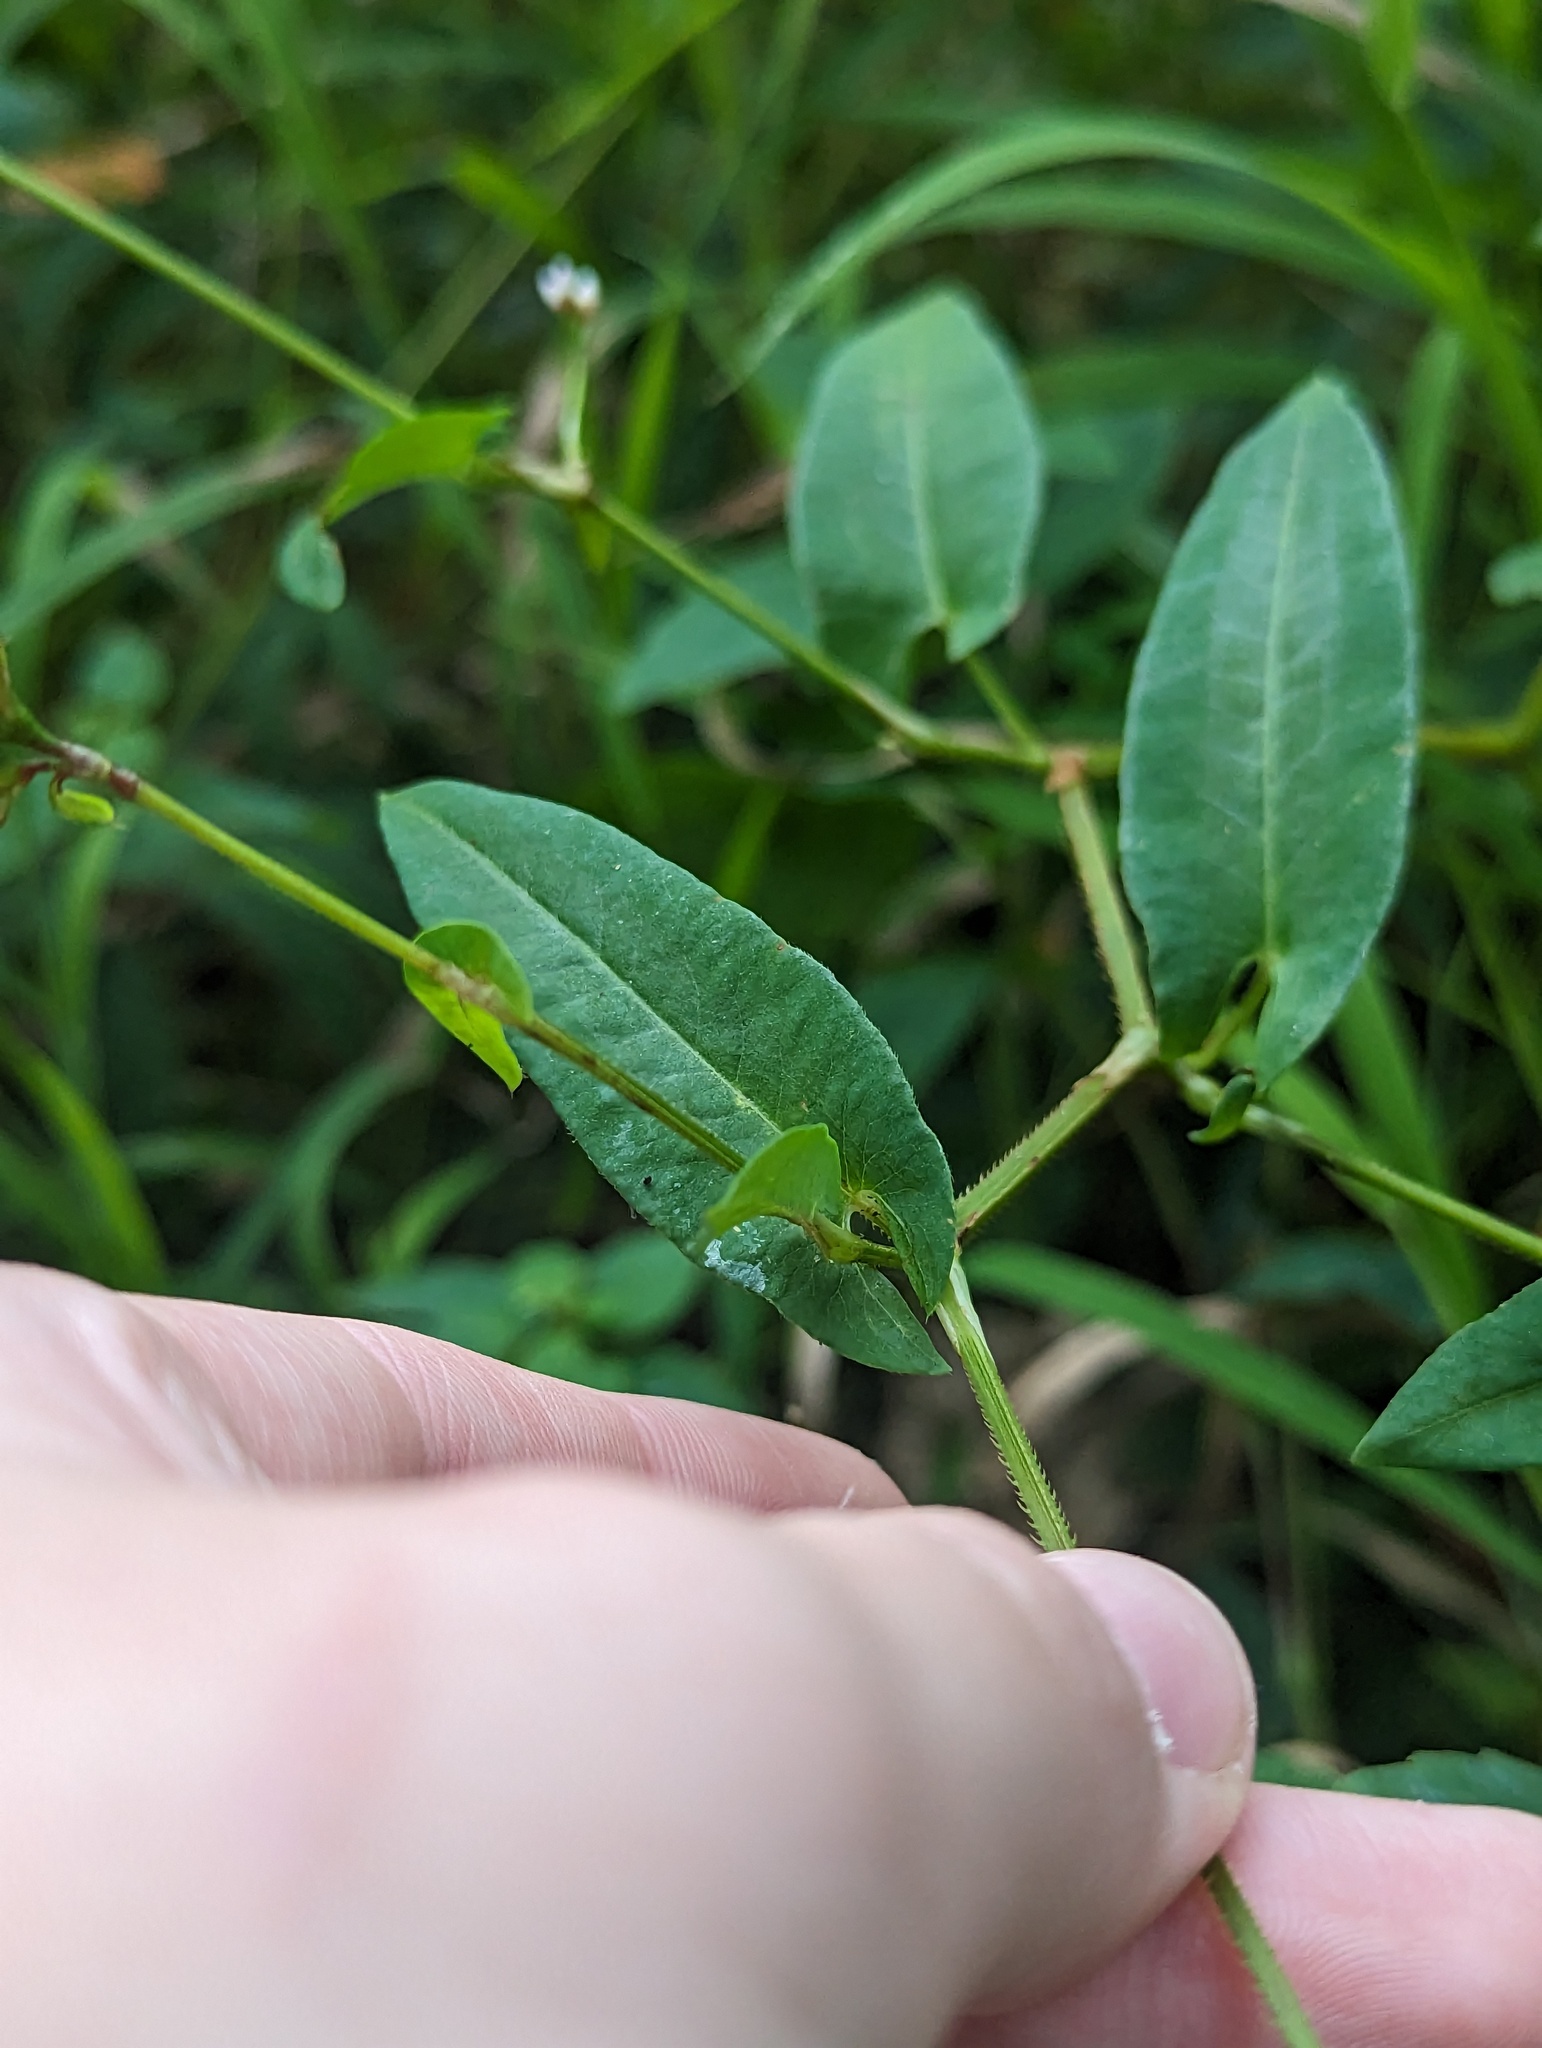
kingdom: Plantae
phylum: Tracheophyta
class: Magnoliopsida
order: Caryophyllales
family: Polygonaceae
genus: Persicaria
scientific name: Persicaria sagittata
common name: American tearthumb
